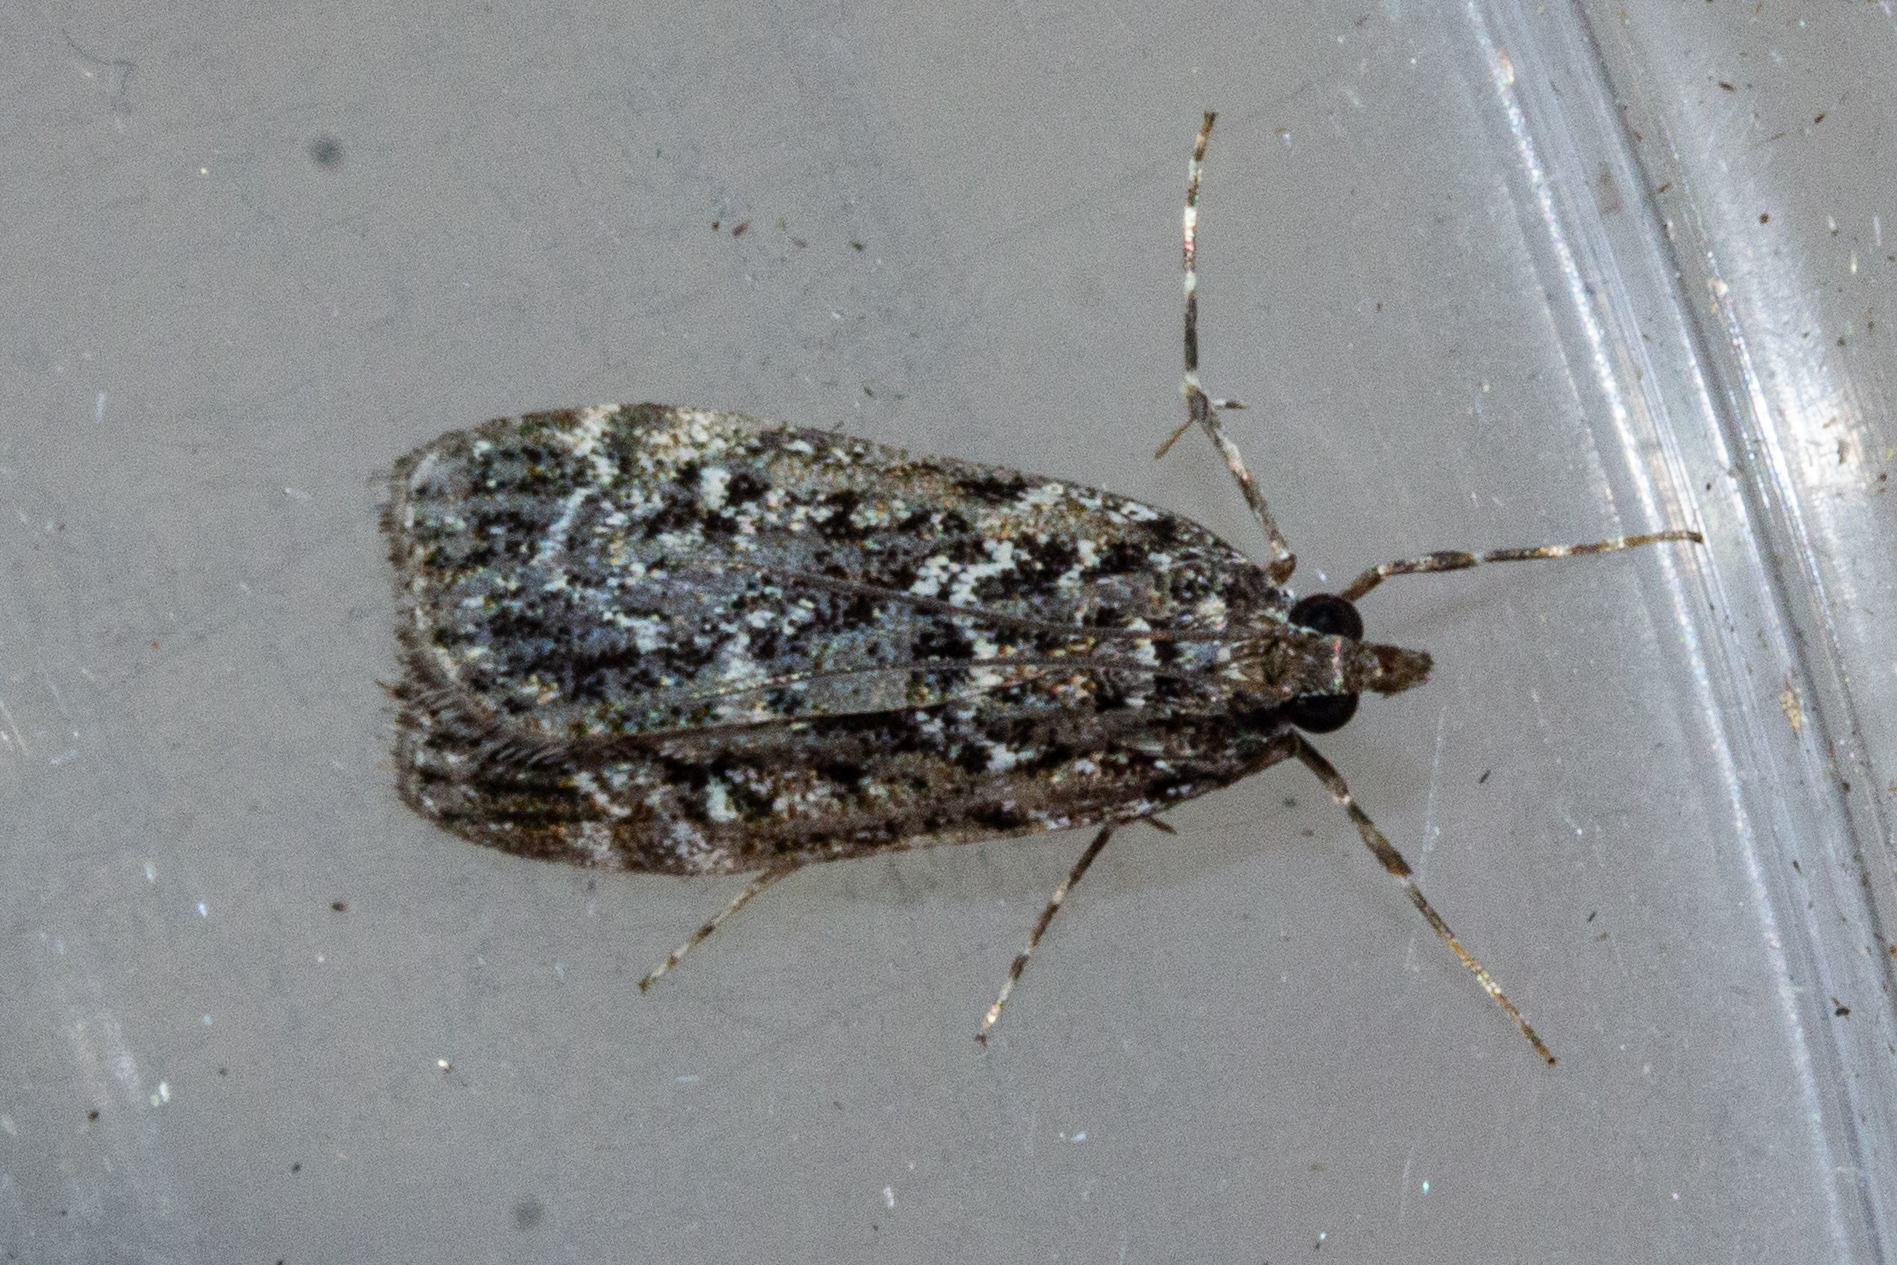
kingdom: Animalia
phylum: Arthropoda
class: Insecta
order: Lepidoptera
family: Crambidae
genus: Eudonia
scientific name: Eudonia philerga
